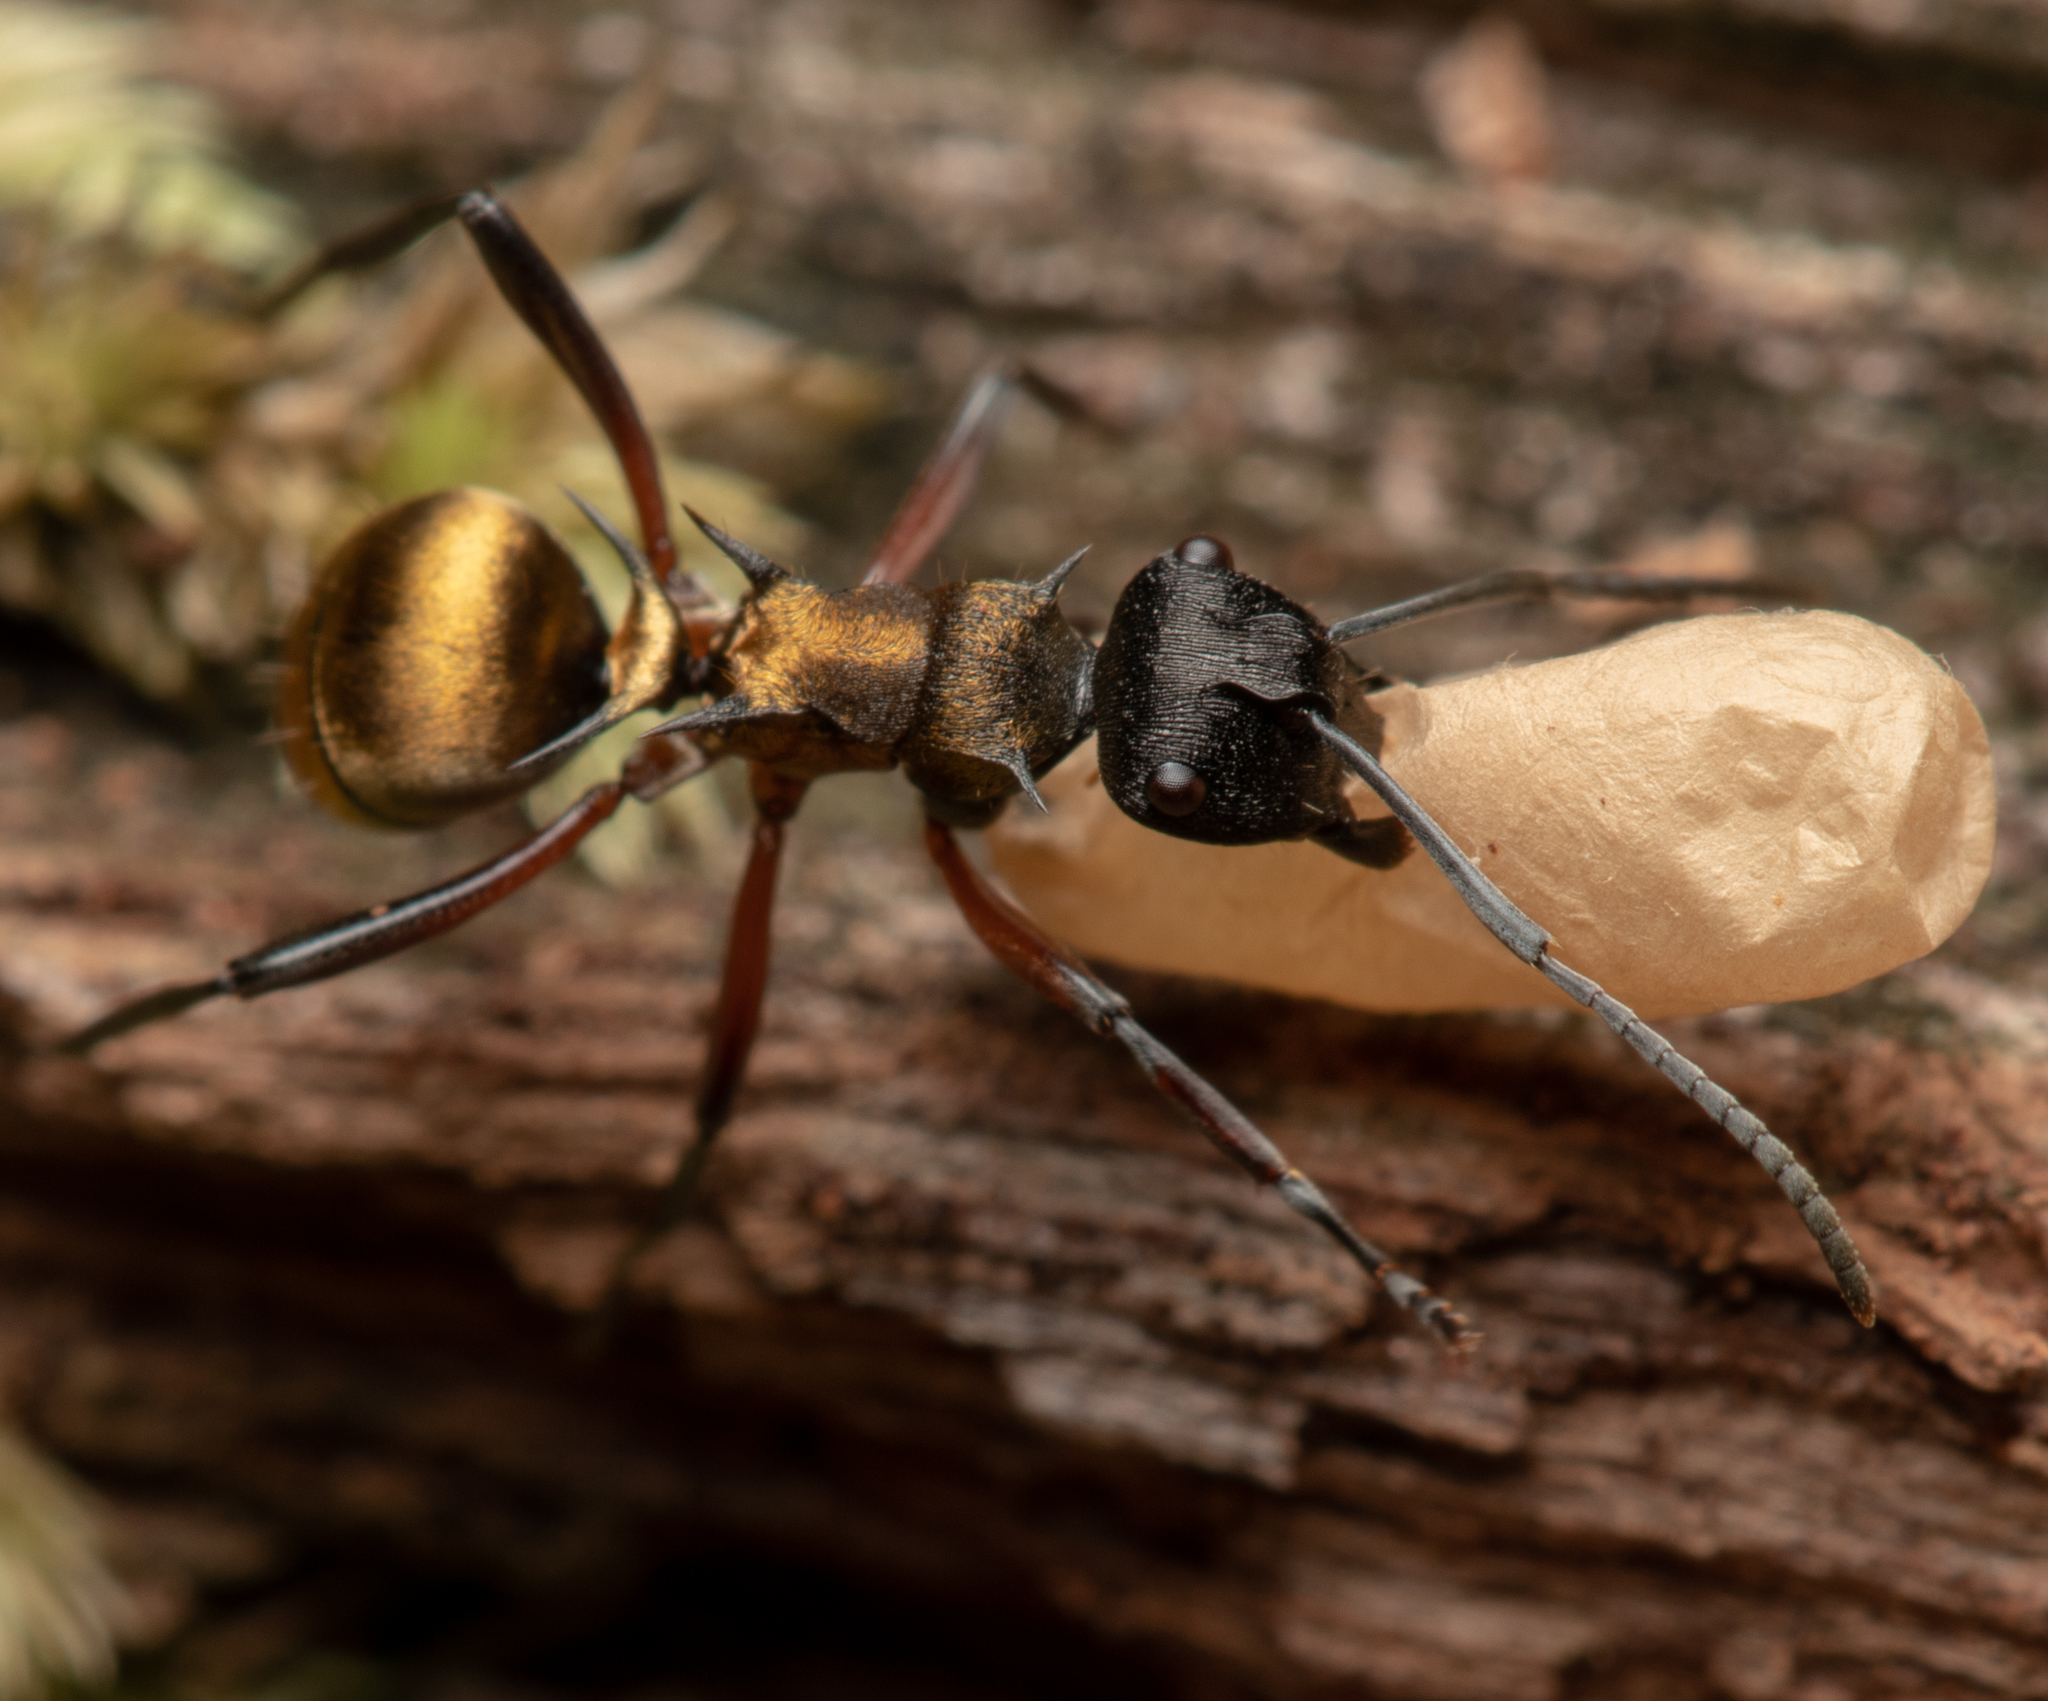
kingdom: Animalia
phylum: Arthropoda
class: Insecta
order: Hymenoptera
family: Formicidae
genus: Polyrhachis
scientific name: Polyrhachis rufifemur
